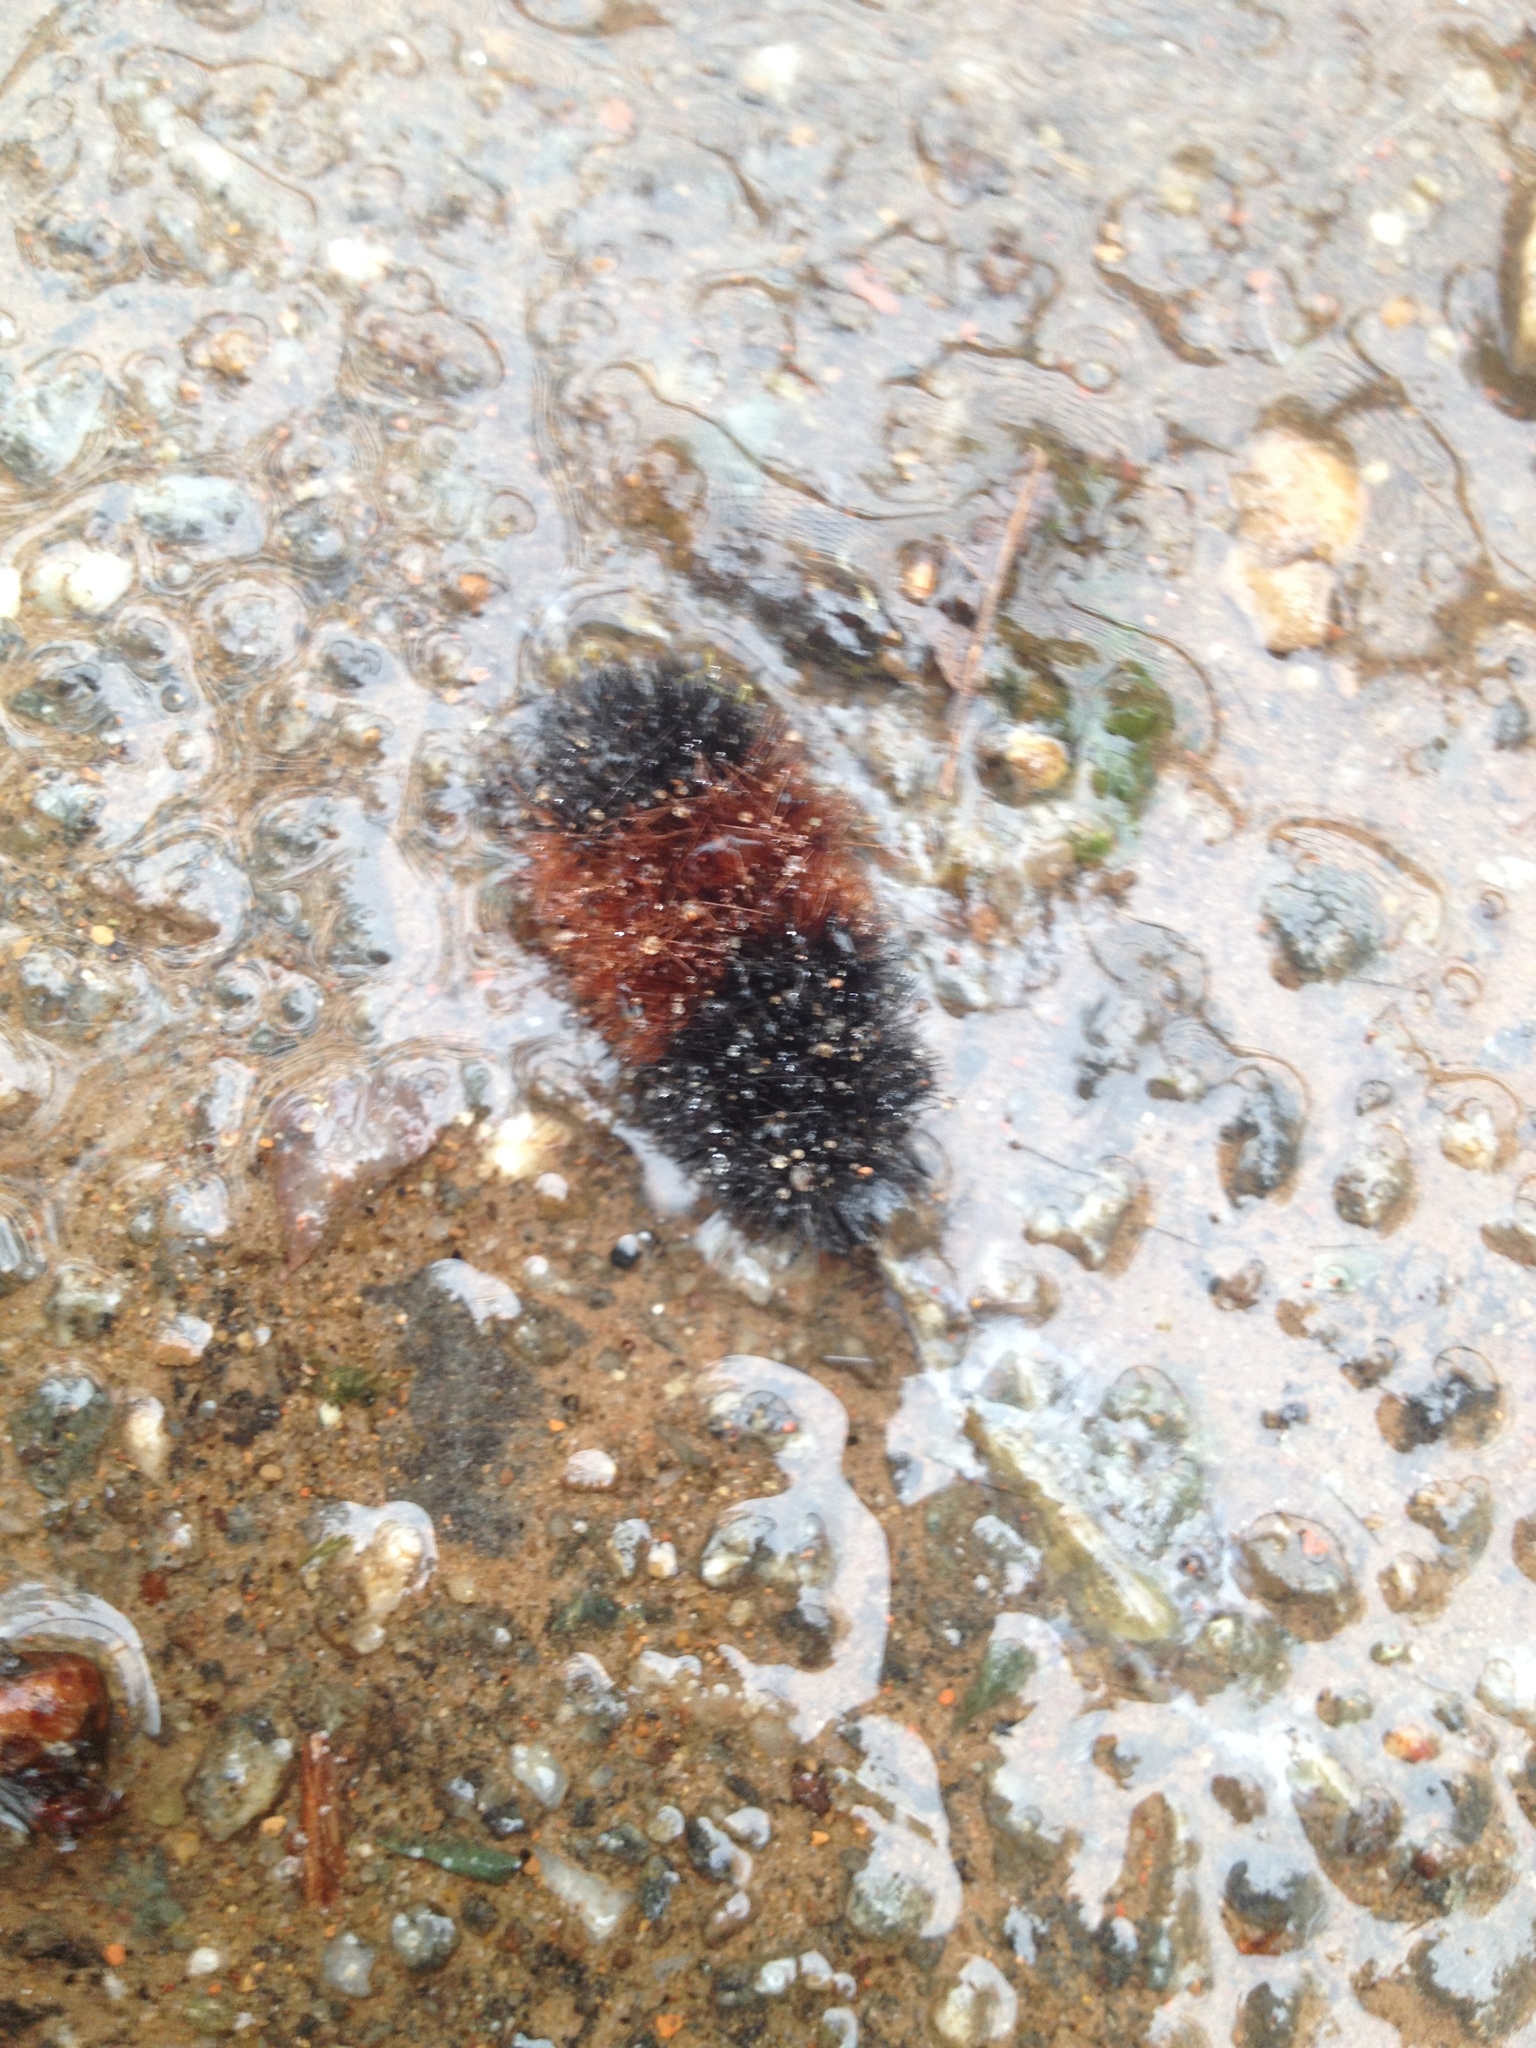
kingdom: Animalia
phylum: Arthropoda
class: Insecta
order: Lepidoptera
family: Erebidae
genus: Pyrrharctia
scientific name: Pyrrharctia isabella
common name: Isabella tiger moth
